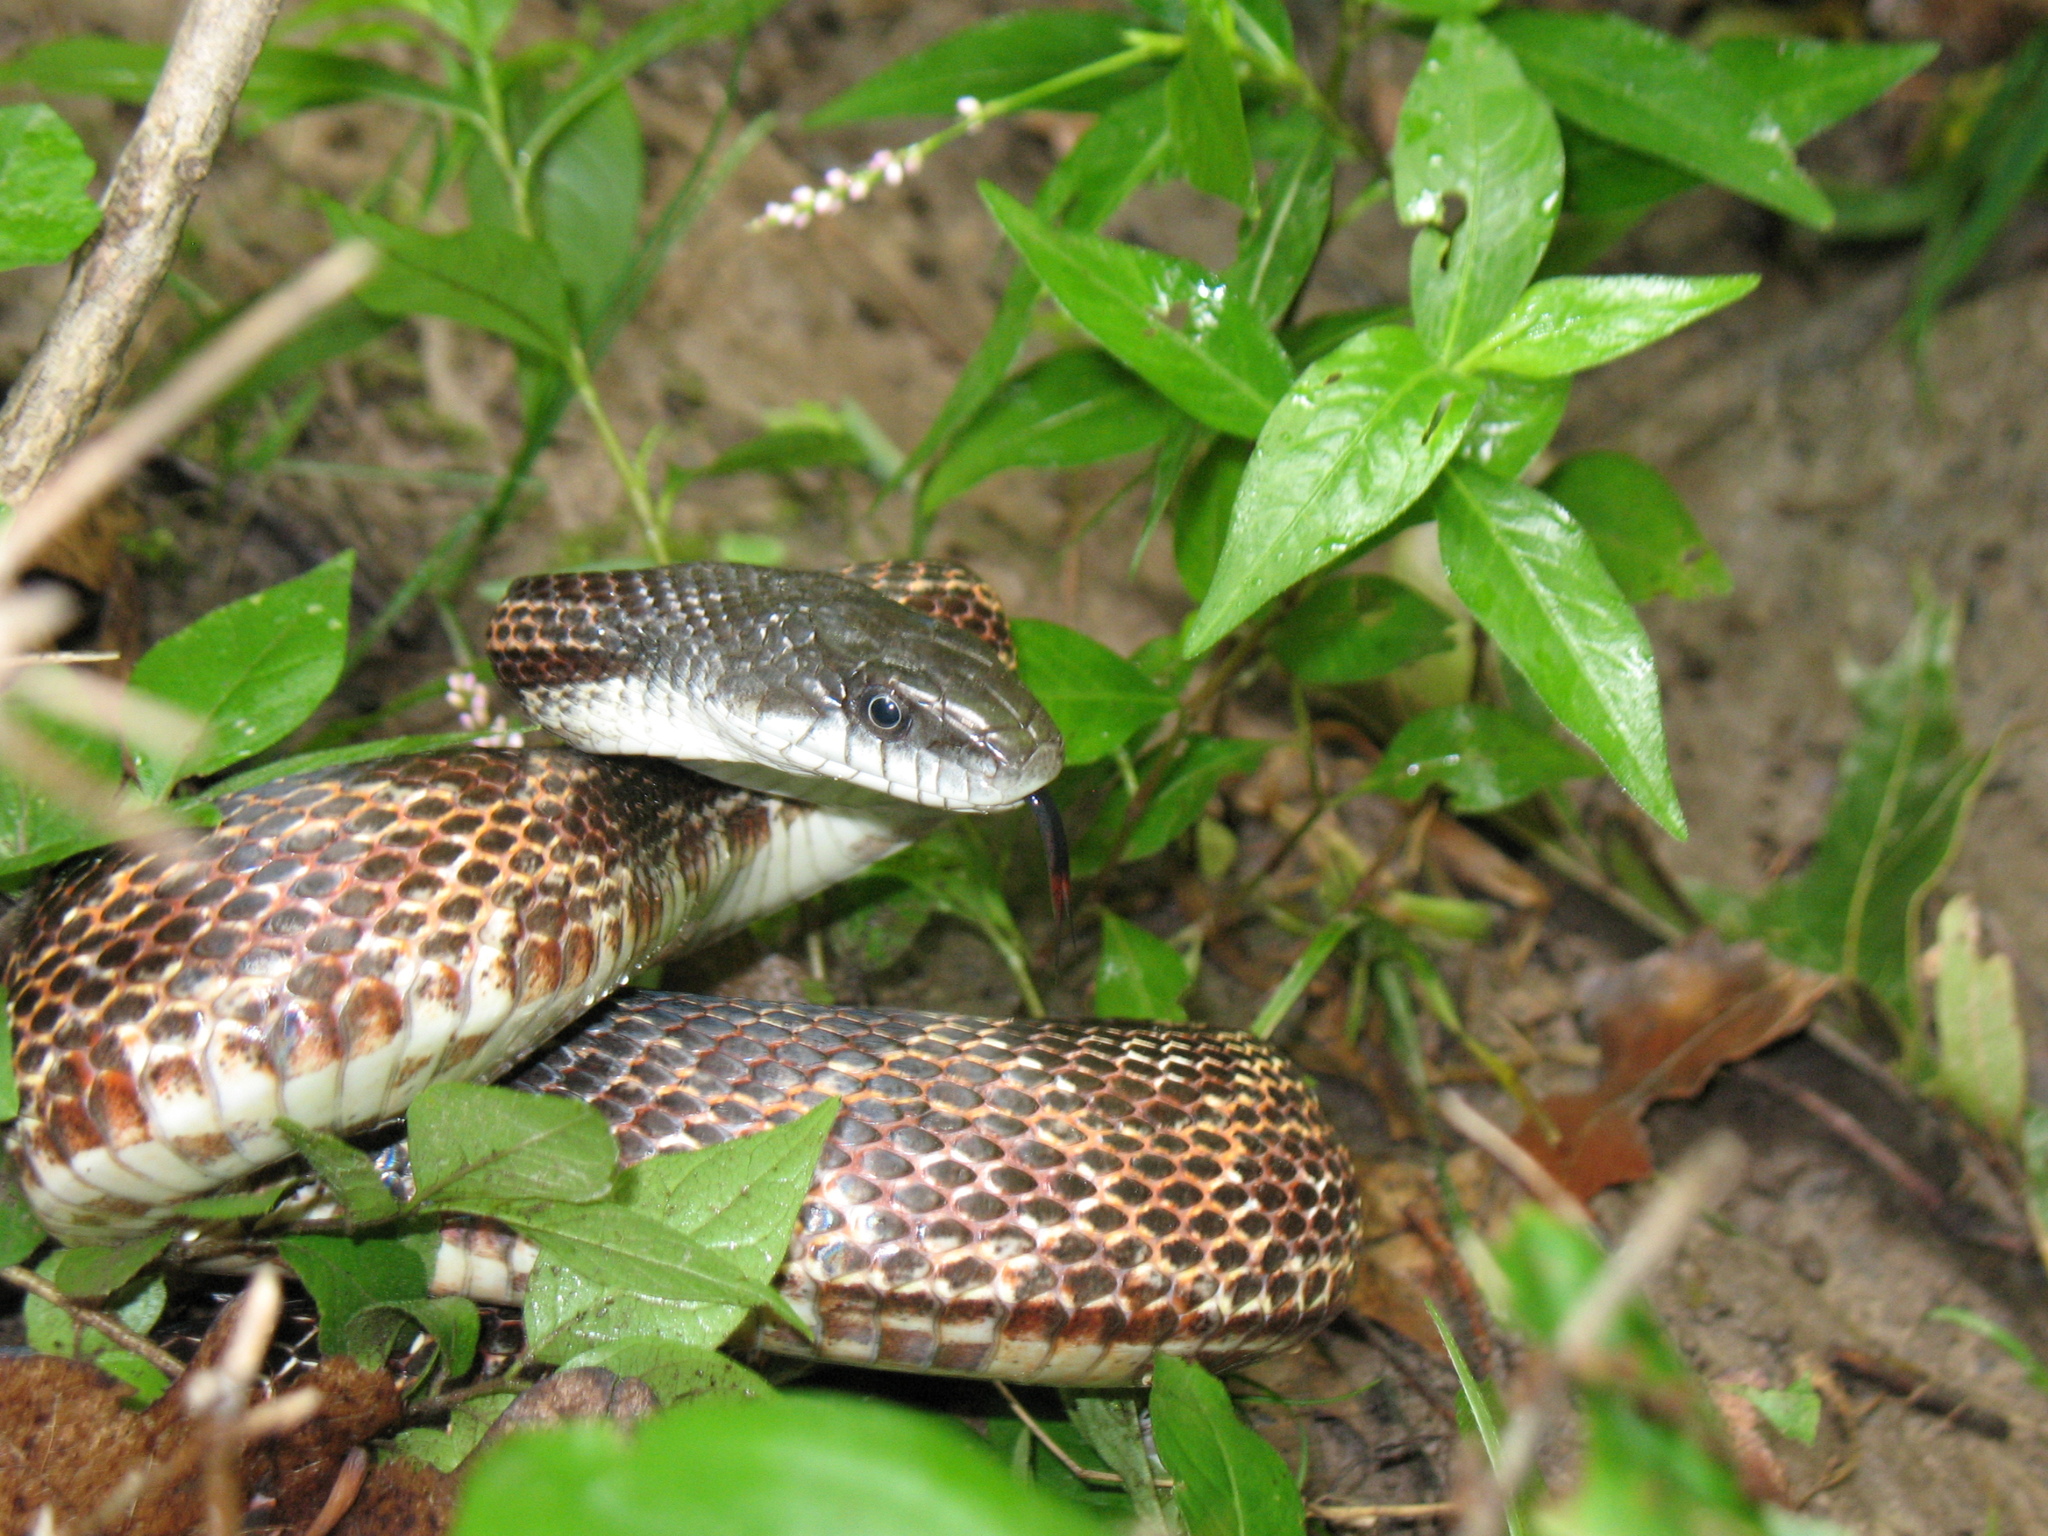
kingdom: Animalia
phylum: Chordata
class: Squamata
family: Colubridae
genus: Pantherophis
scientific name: Pantherophis spiloides
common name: Gray rat snake
